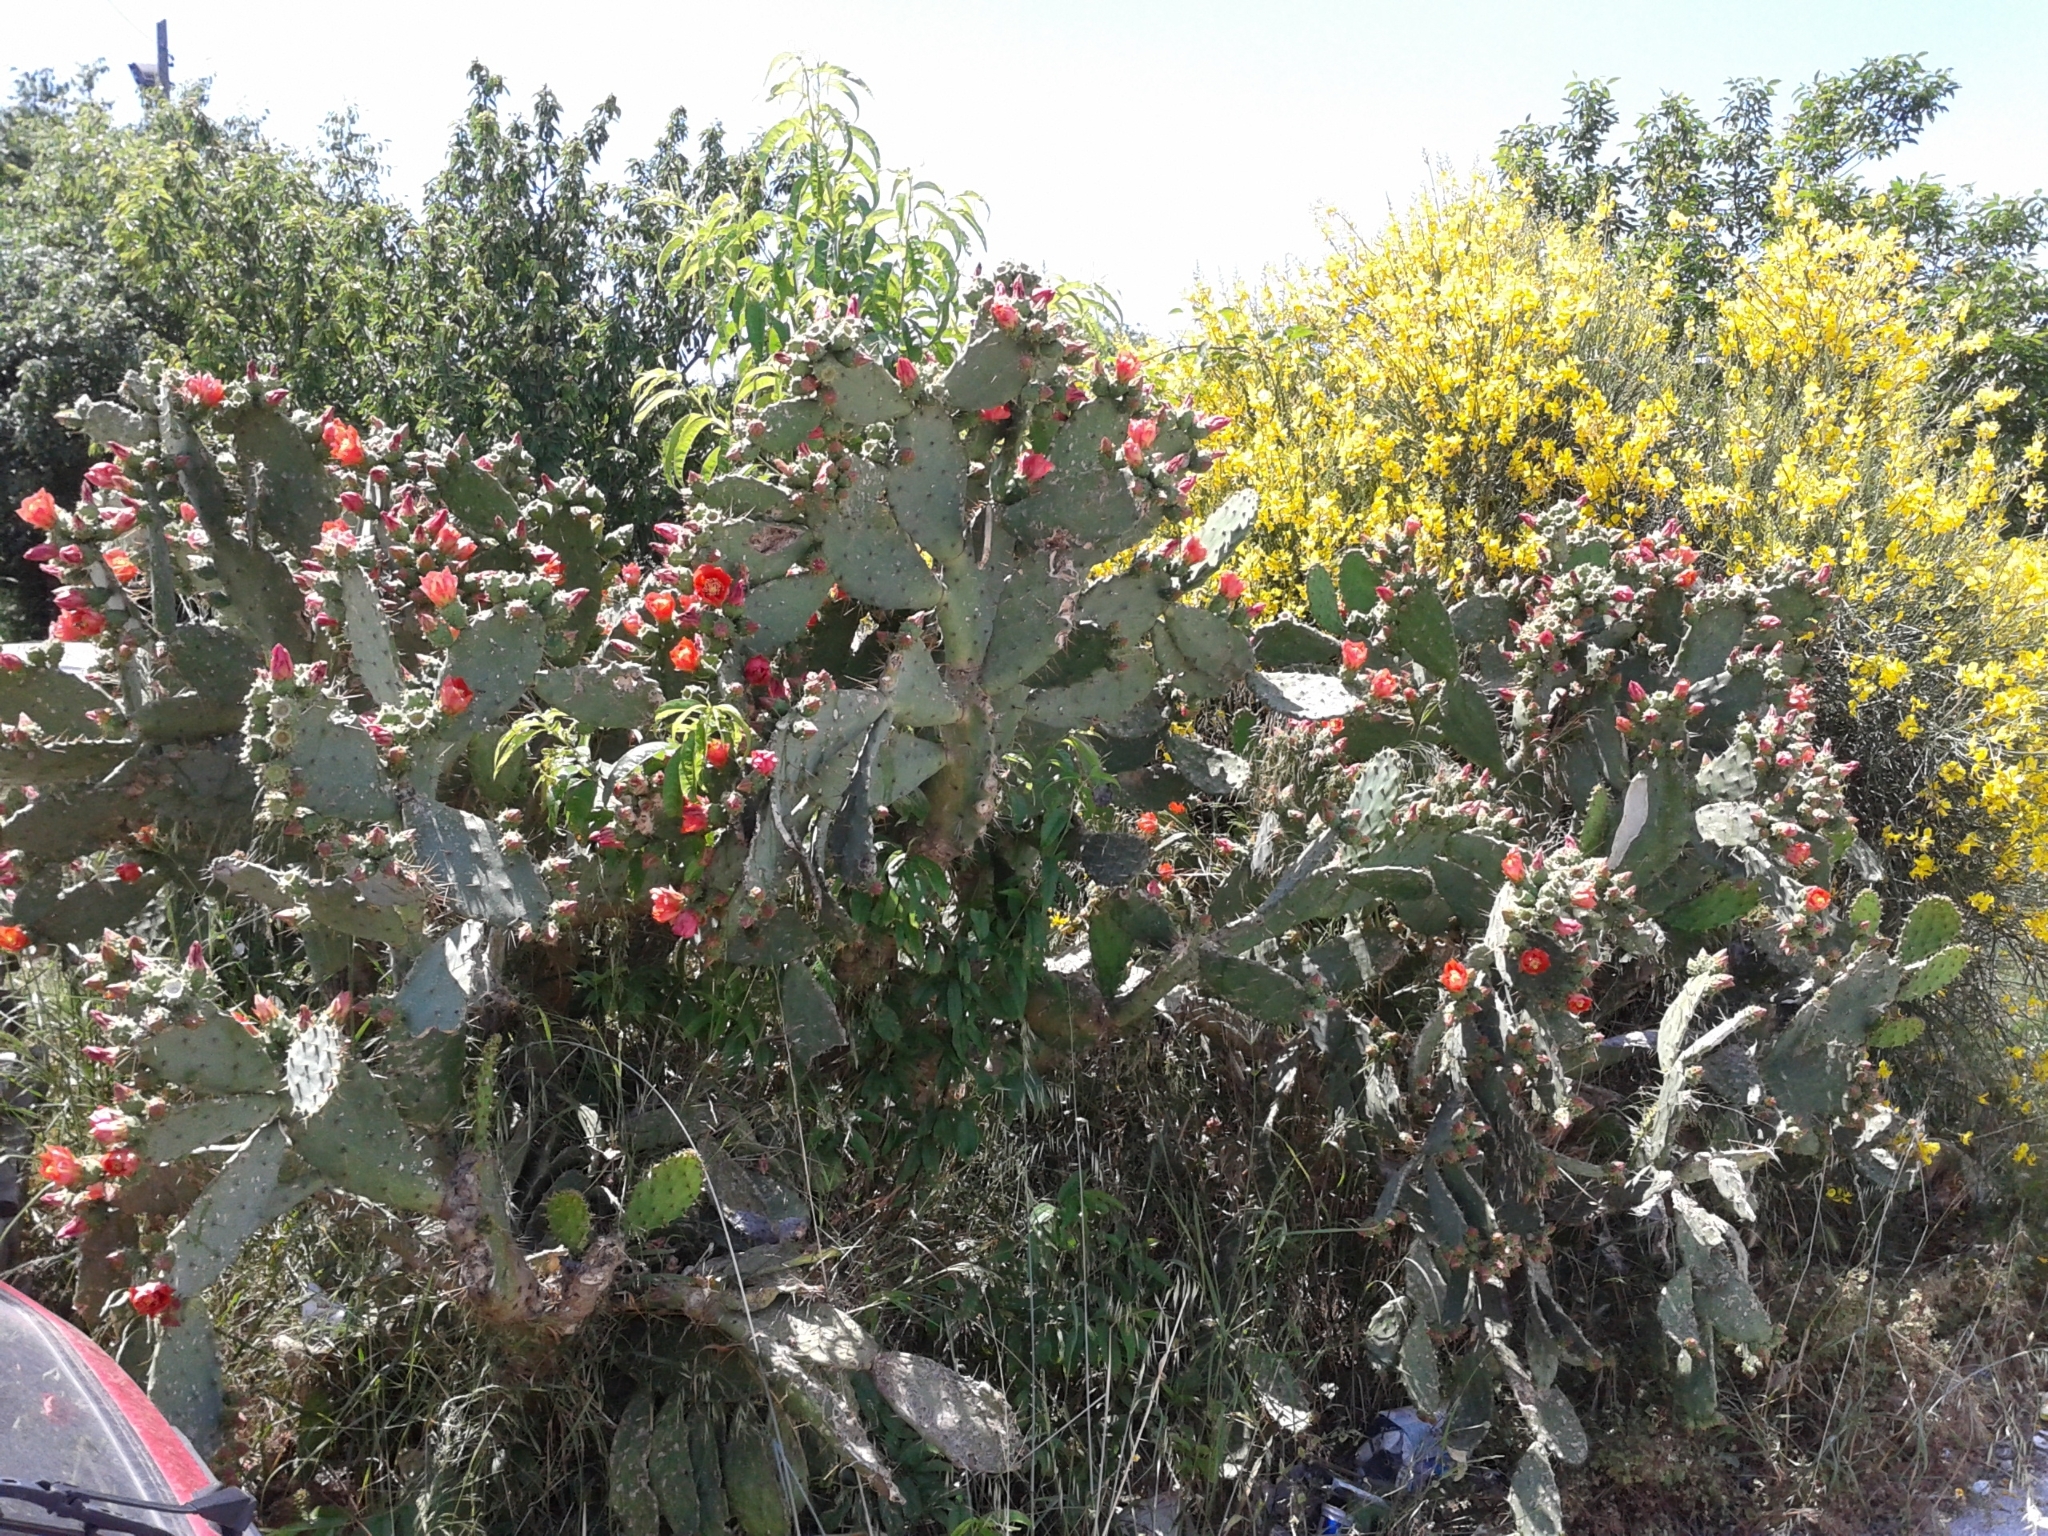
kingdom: Plantae
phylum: Tracheophyta
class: Magnoliopsida
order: Caryophyllales
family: Cactaceae
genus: Opuntia
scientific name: Opuntia elatior
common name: Tuna
